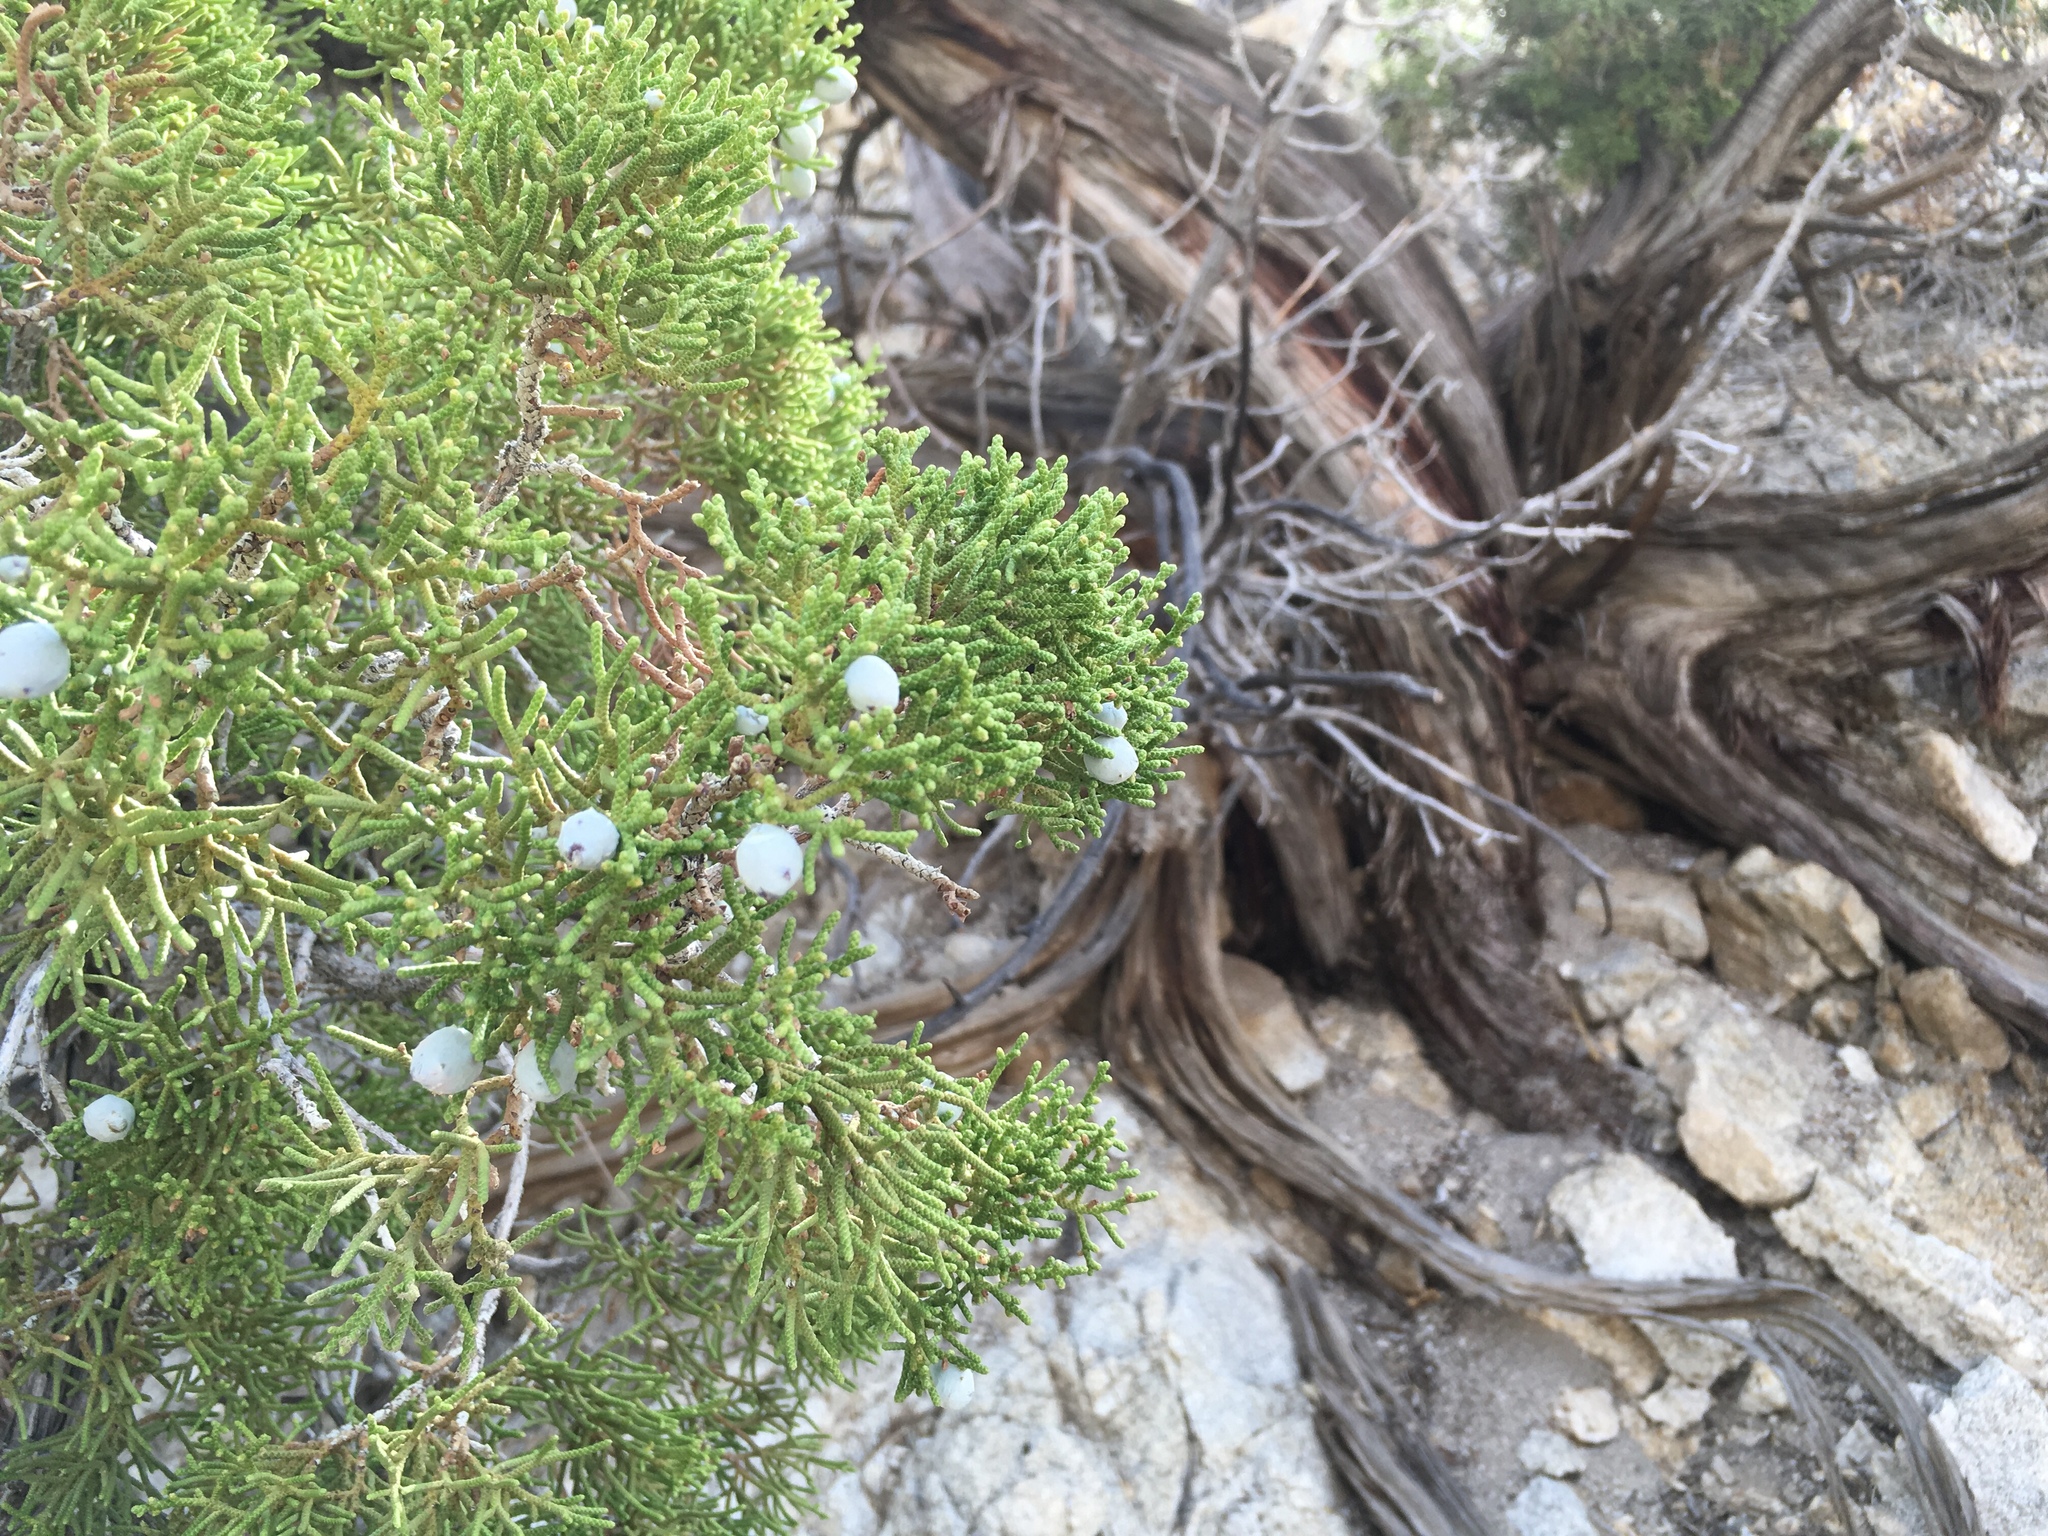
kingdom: Plantae
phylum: Tracheophyta
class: Pinopsida
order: Pinales
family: Cupressaceae
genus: Juniperus
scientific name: Juniperus californica
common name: California juniper
